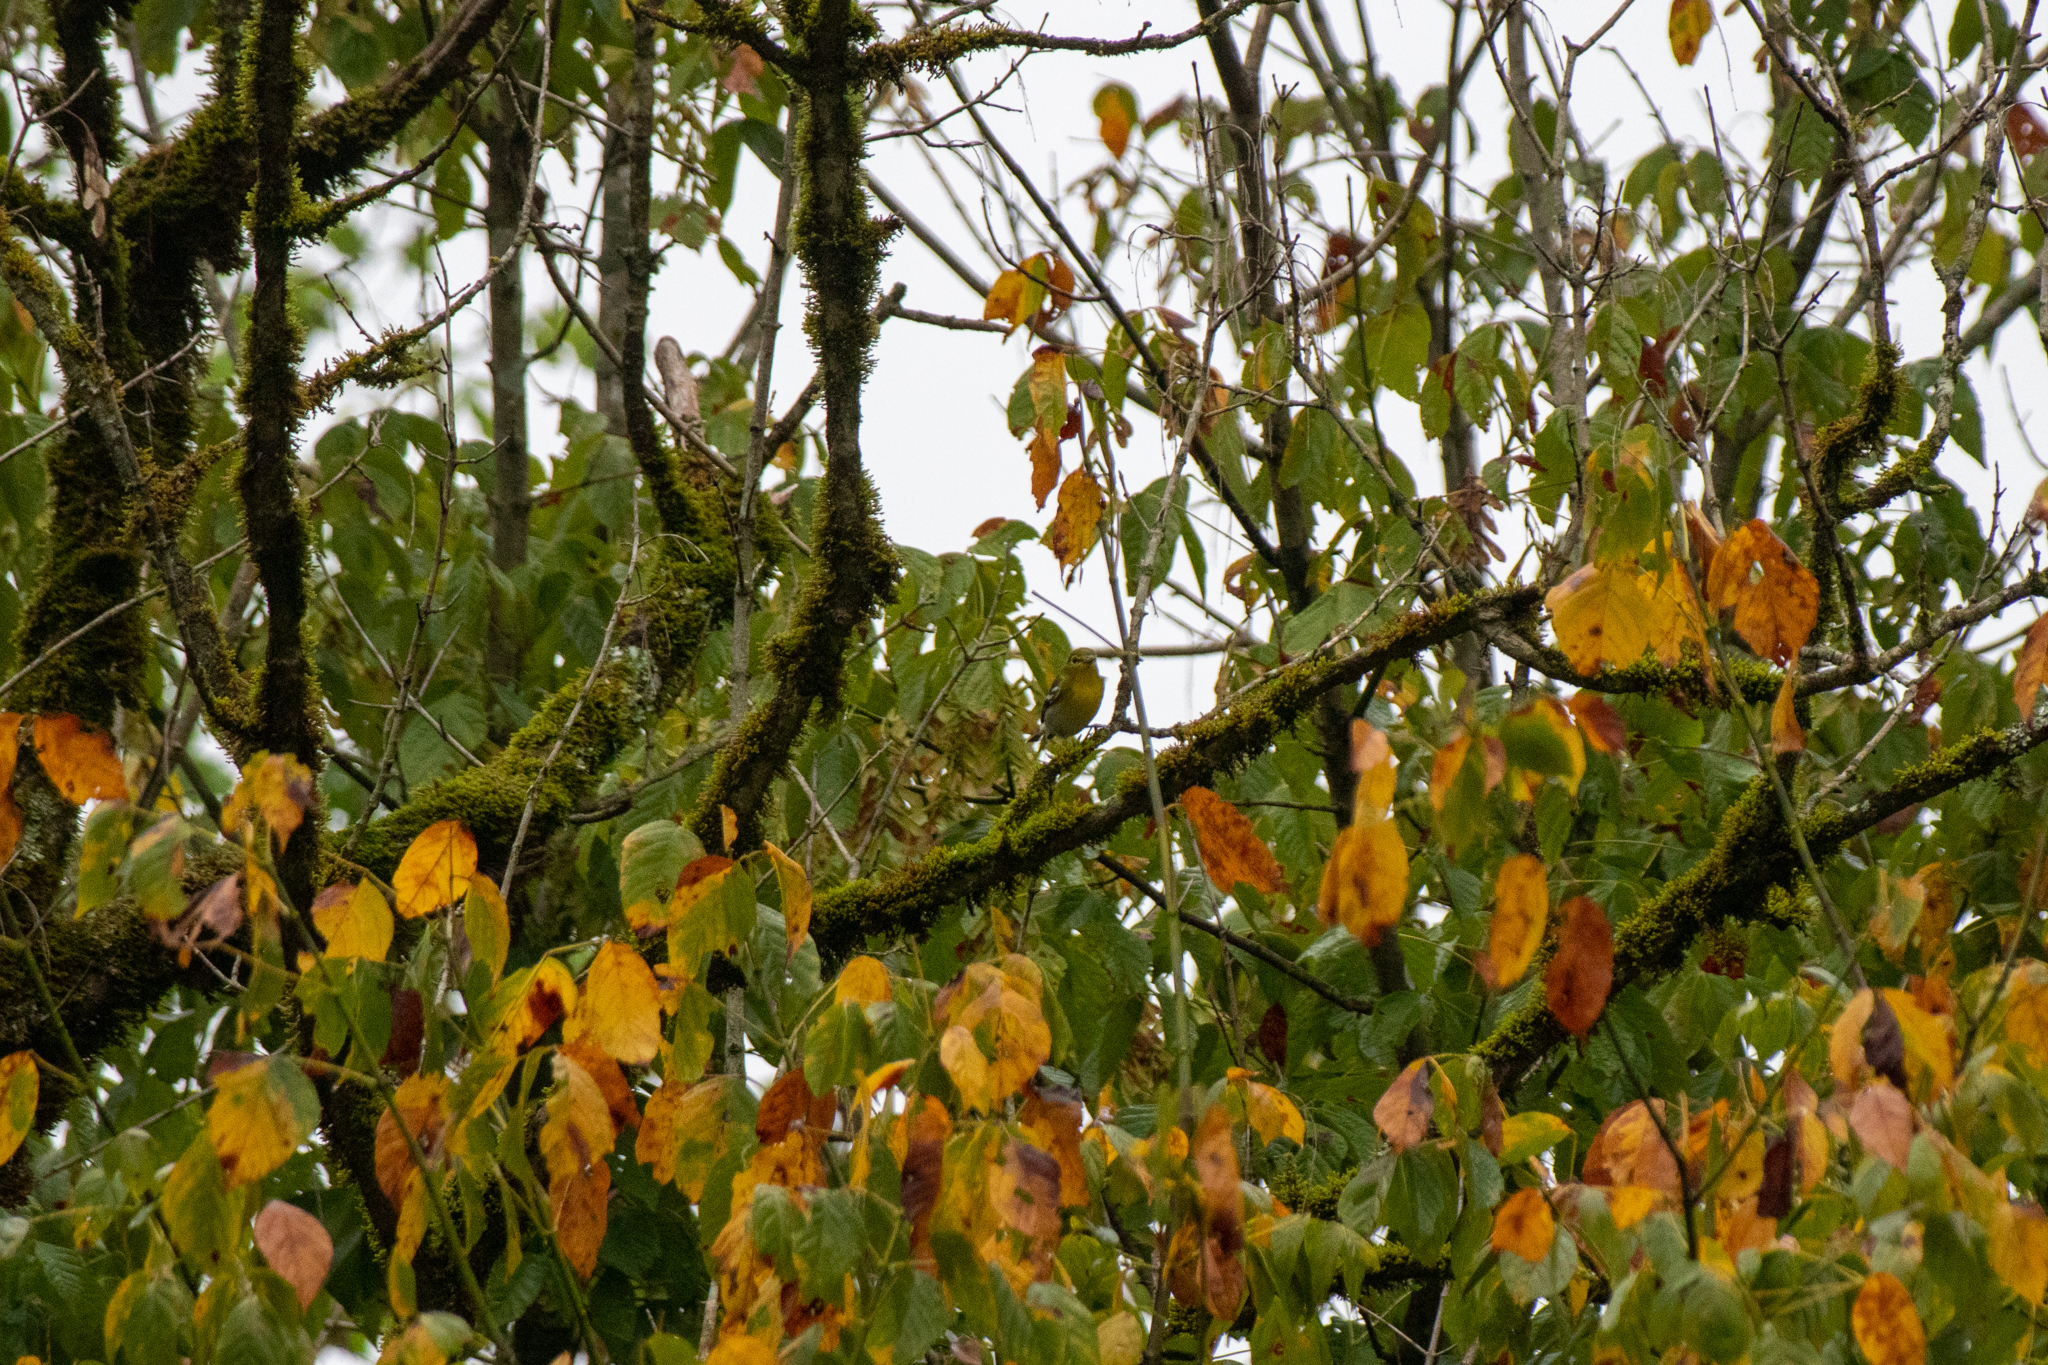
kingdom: Animalia
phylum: Chordata
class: Aves
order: Passeriformes
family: Vireonidae
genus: Vireo
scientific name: Vireo flavifrons
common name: Yellow-throated vireo
